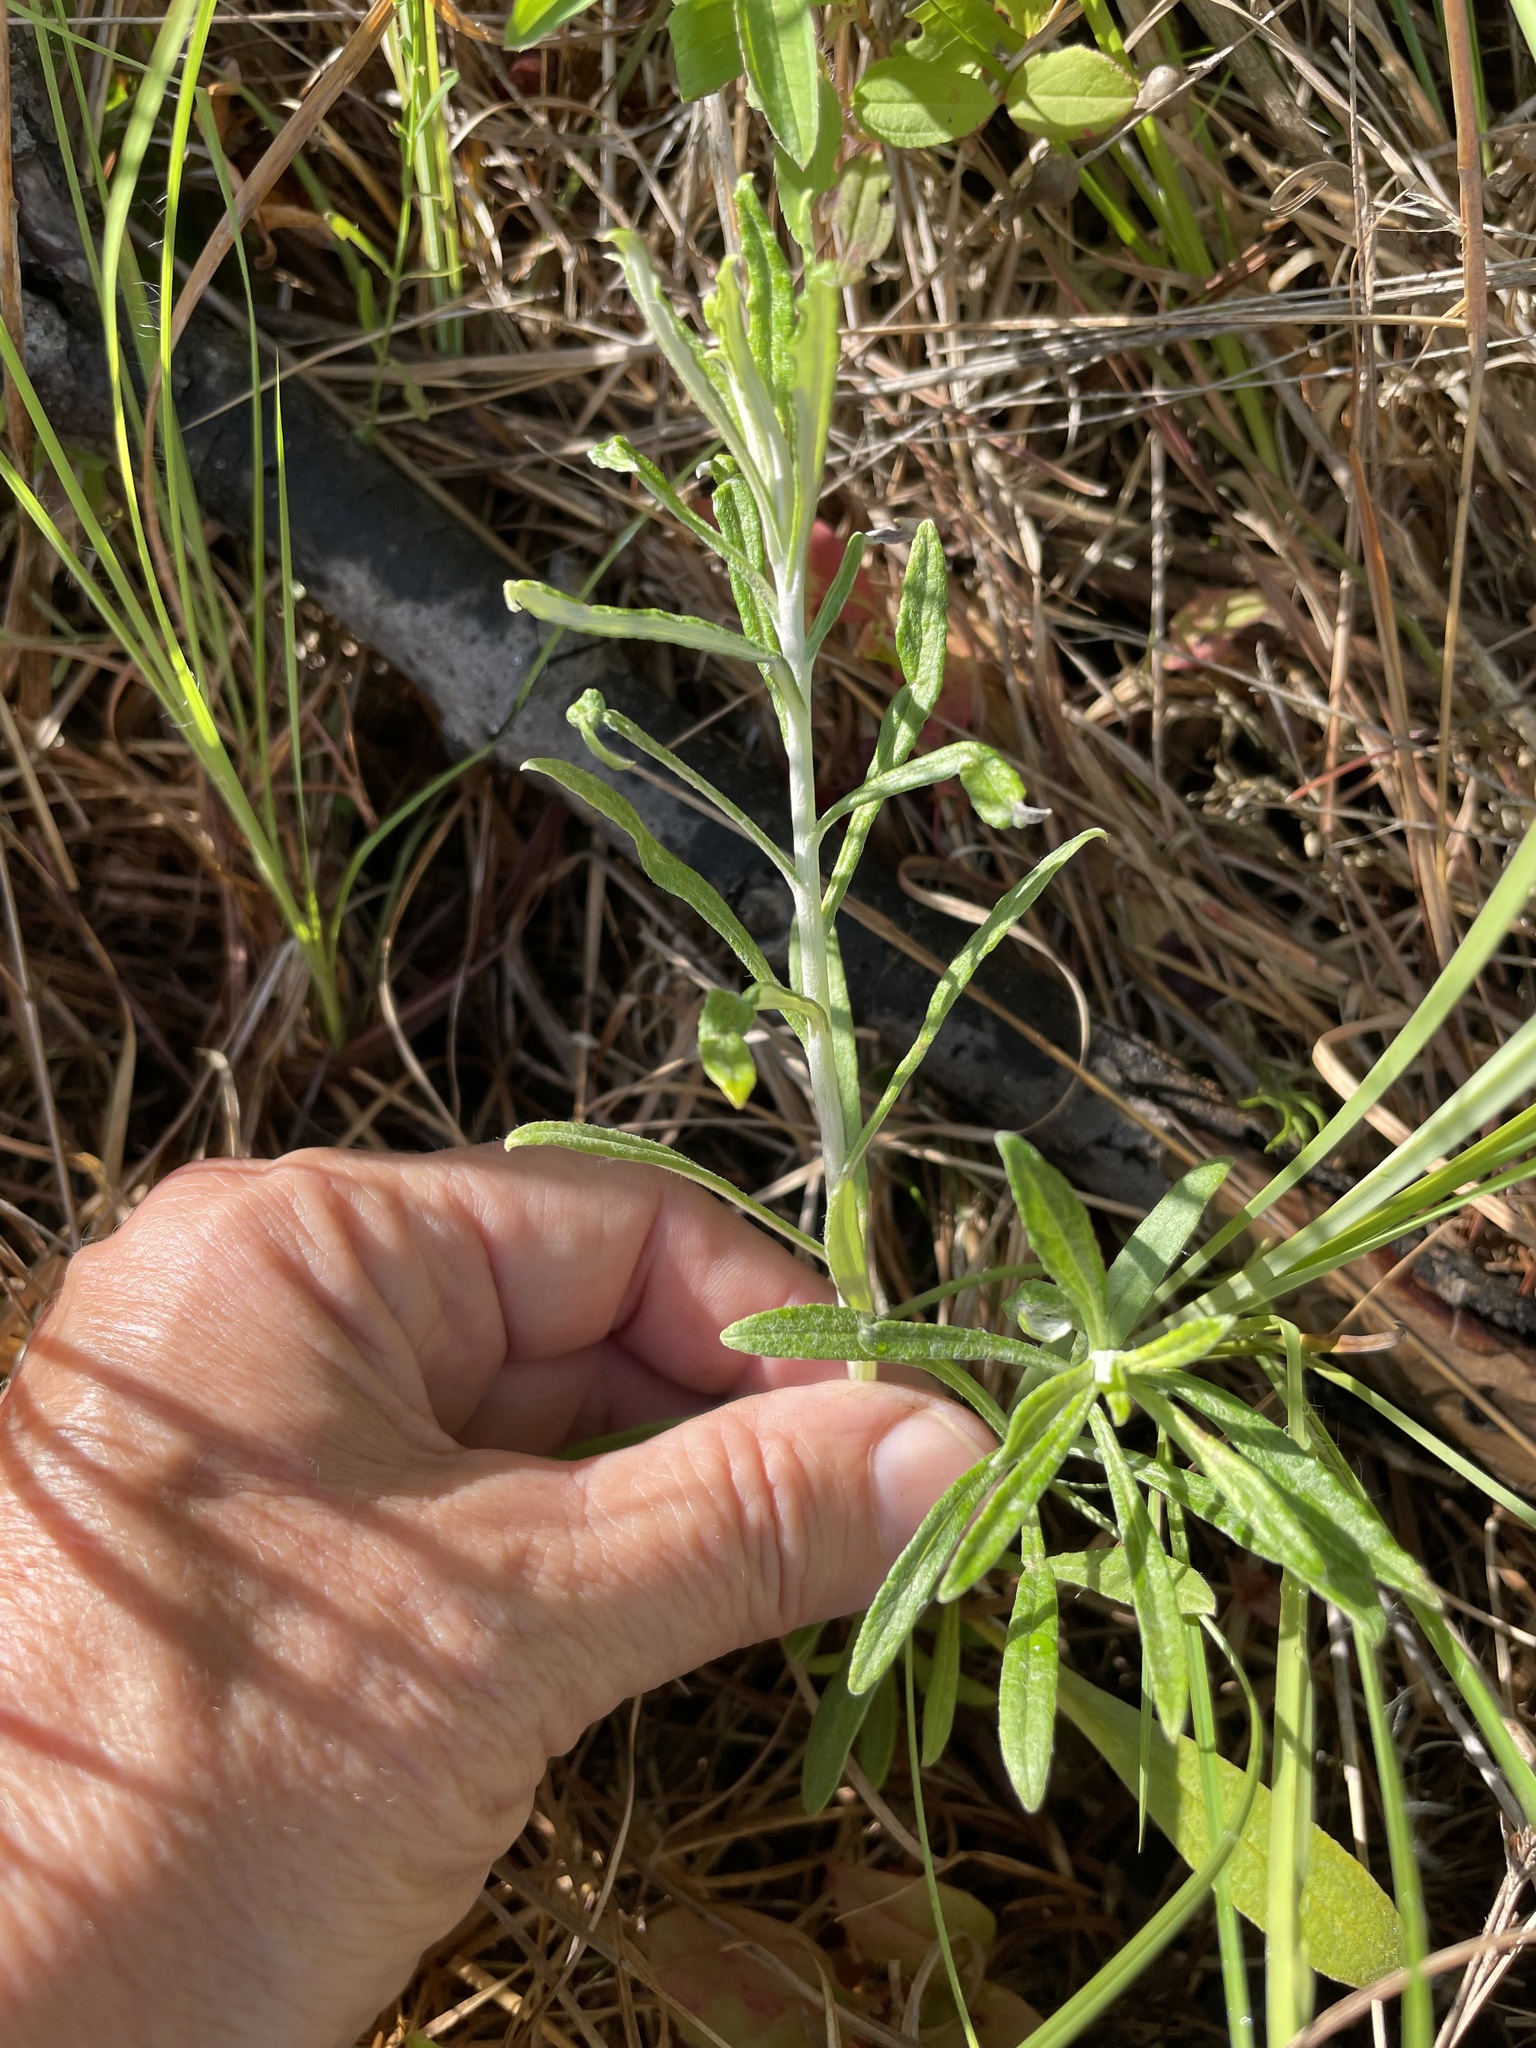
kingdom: Plantae
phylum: Tracheophyta
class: Magnoliopsida
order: Asterales
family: Asteraceae
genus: Pseudognaphalium
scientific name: Pseudognaphalium obtusifolium
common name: Eastern rabbit-tobacco
